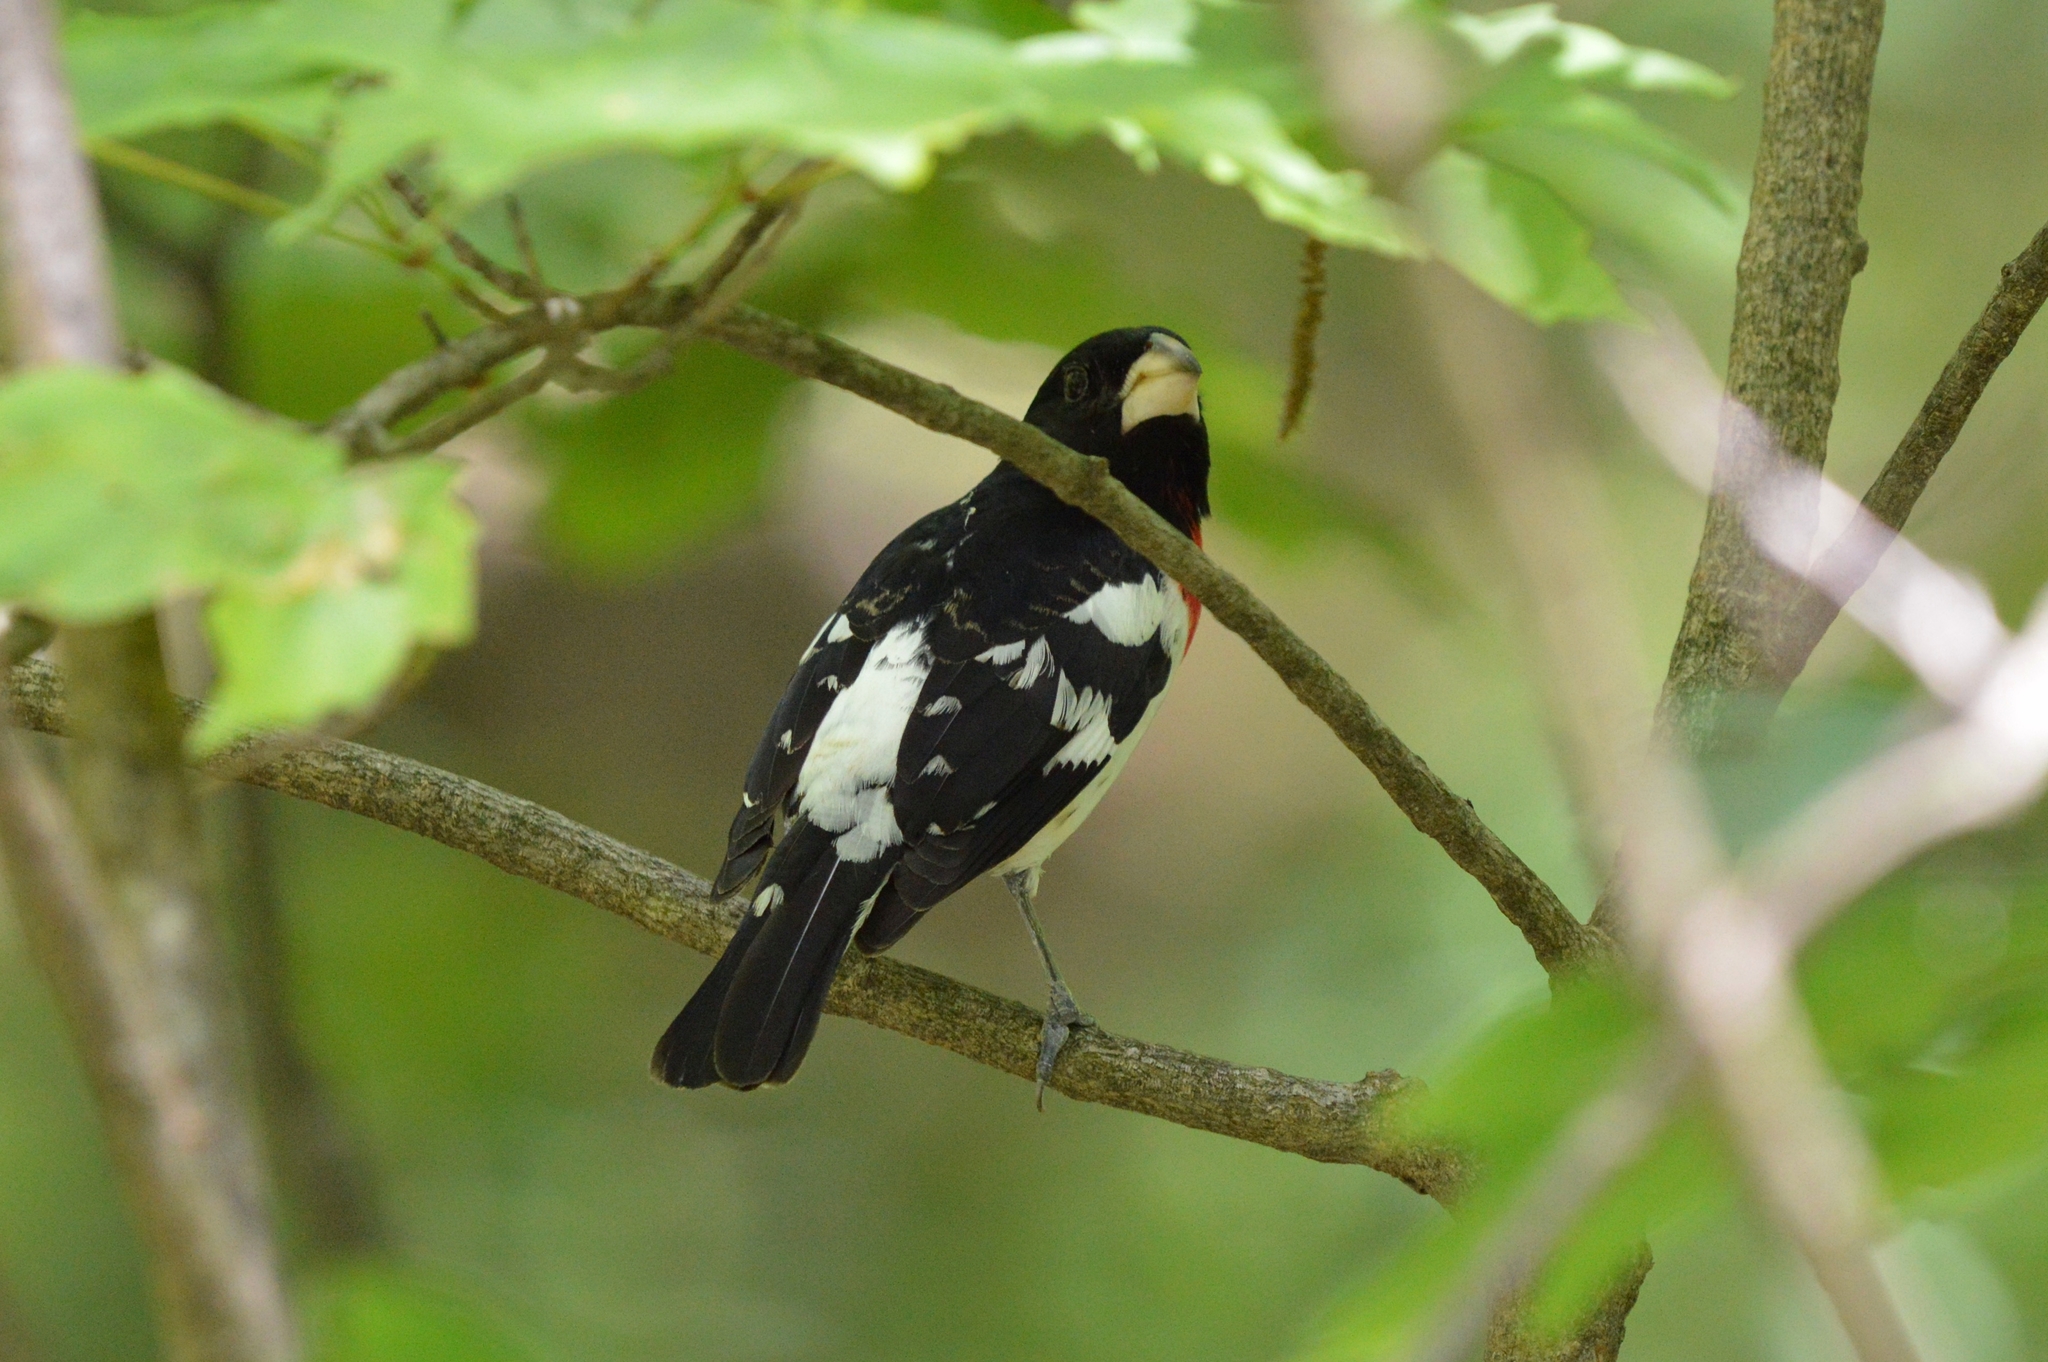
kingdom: Animalia
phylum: Chordata
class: Aves
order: Passeriformes
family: Cardinalidae
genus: Pheucticus
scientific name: Pheucticus ludovicianus
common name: Rose-breasted grosbeak
